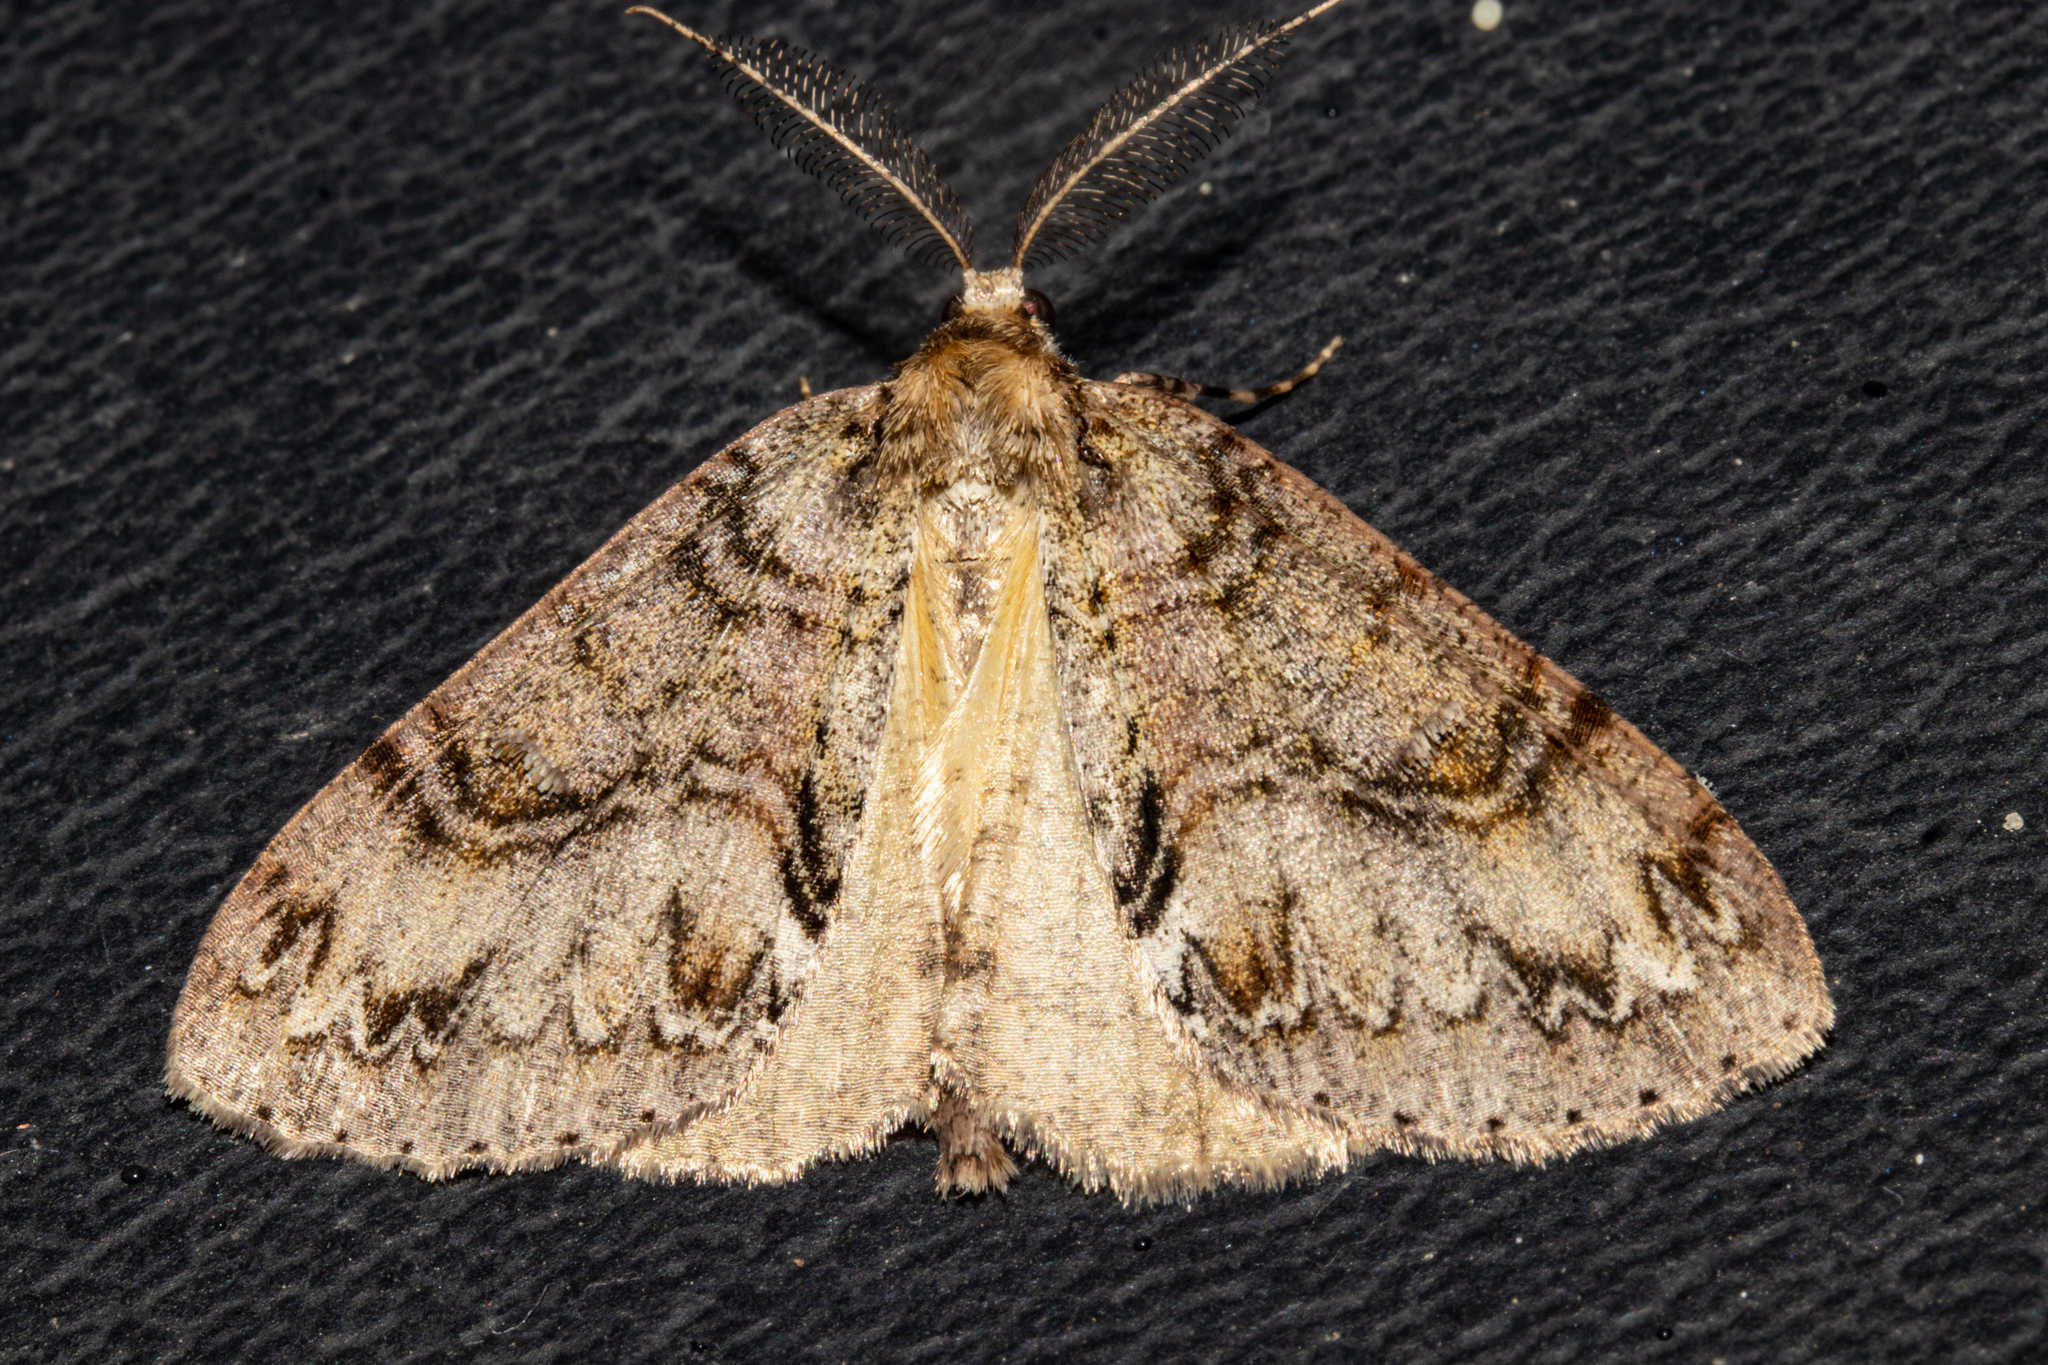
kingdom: Animalia
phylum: Arthropoda
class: Insecta
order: Lepidoptera
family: Geometridae
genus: Pseudocoremia
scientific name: Pseudocoremia suavis
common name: Common forest looper
